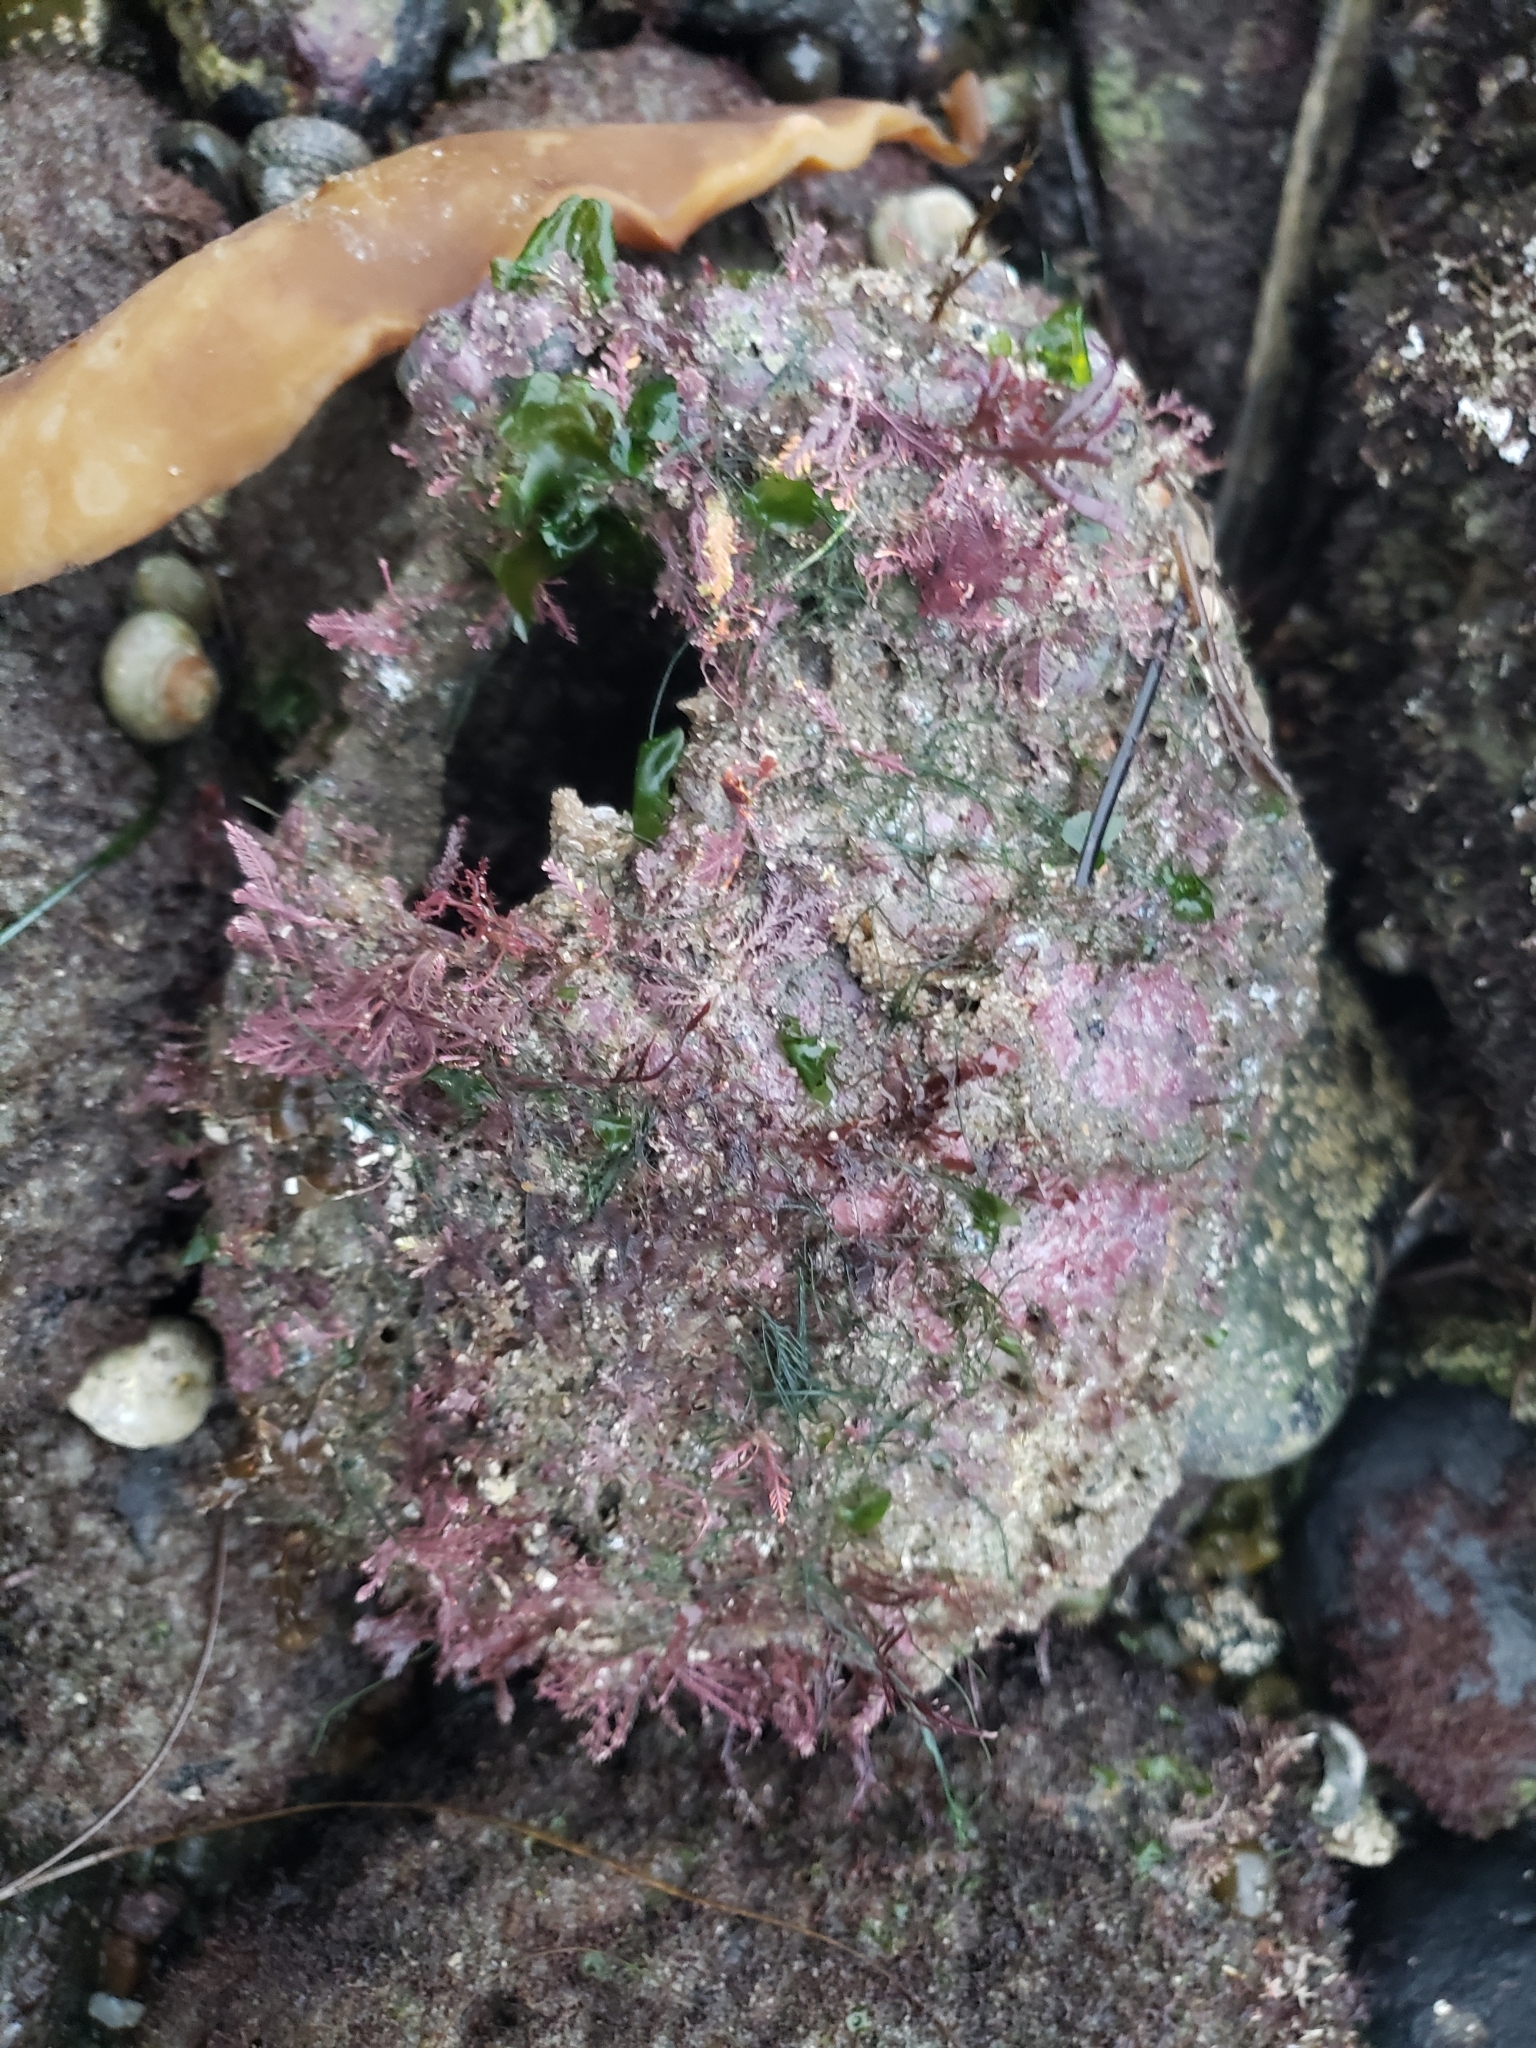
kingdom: Animalia
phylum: Mollusca
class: Gastropoda
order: Lepetellida
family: Haliotidae
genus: Haliotis
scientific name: Haliotis fulgens
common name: Green abalone
